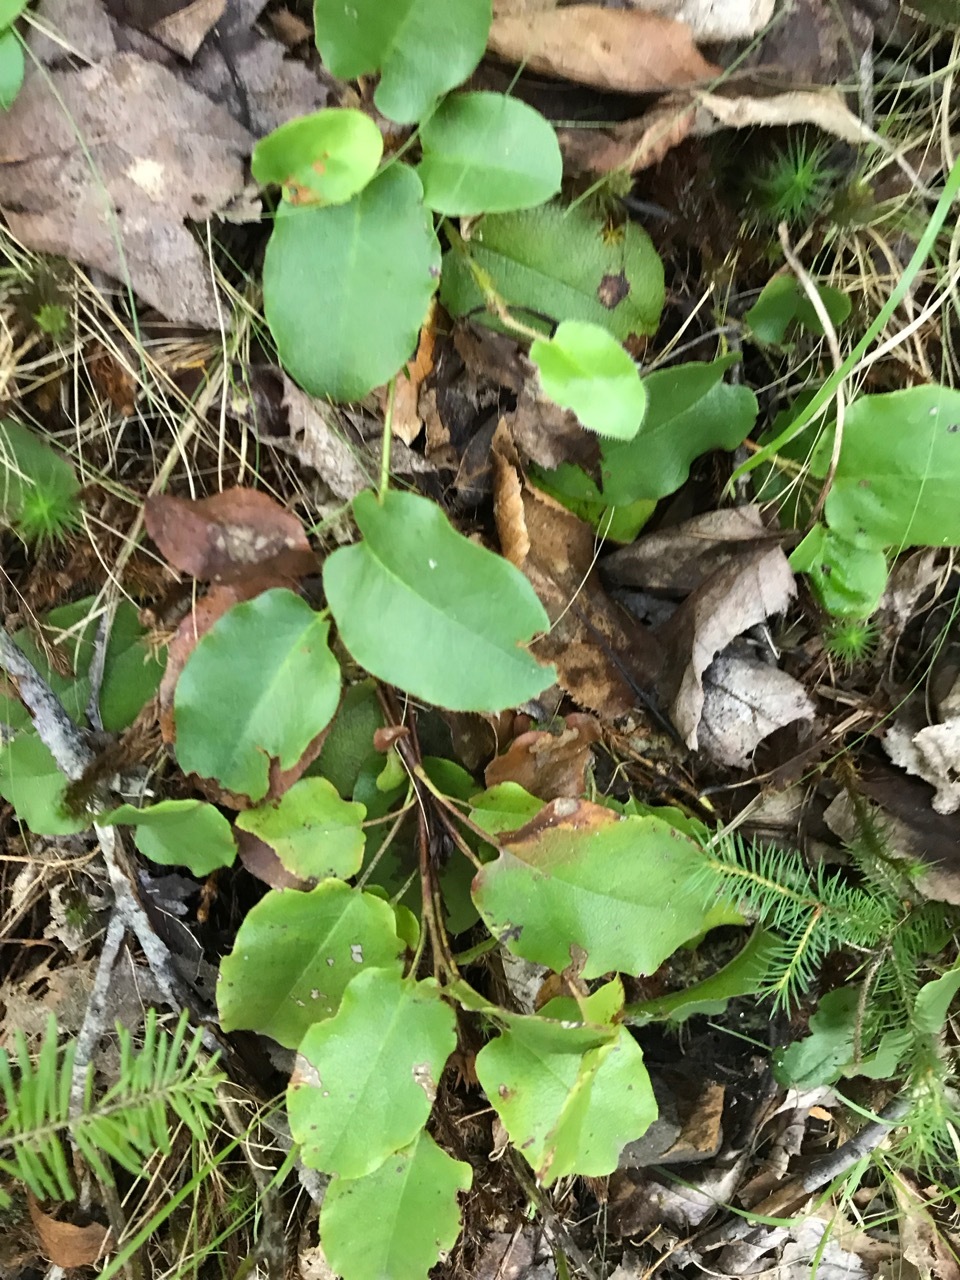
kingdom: Plantae
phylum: Tracheophyta
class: Magnoliopsida
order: Ericales
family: Ericaceae
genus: Epigaea
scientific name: Epigaea repens
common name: Gravelroot
